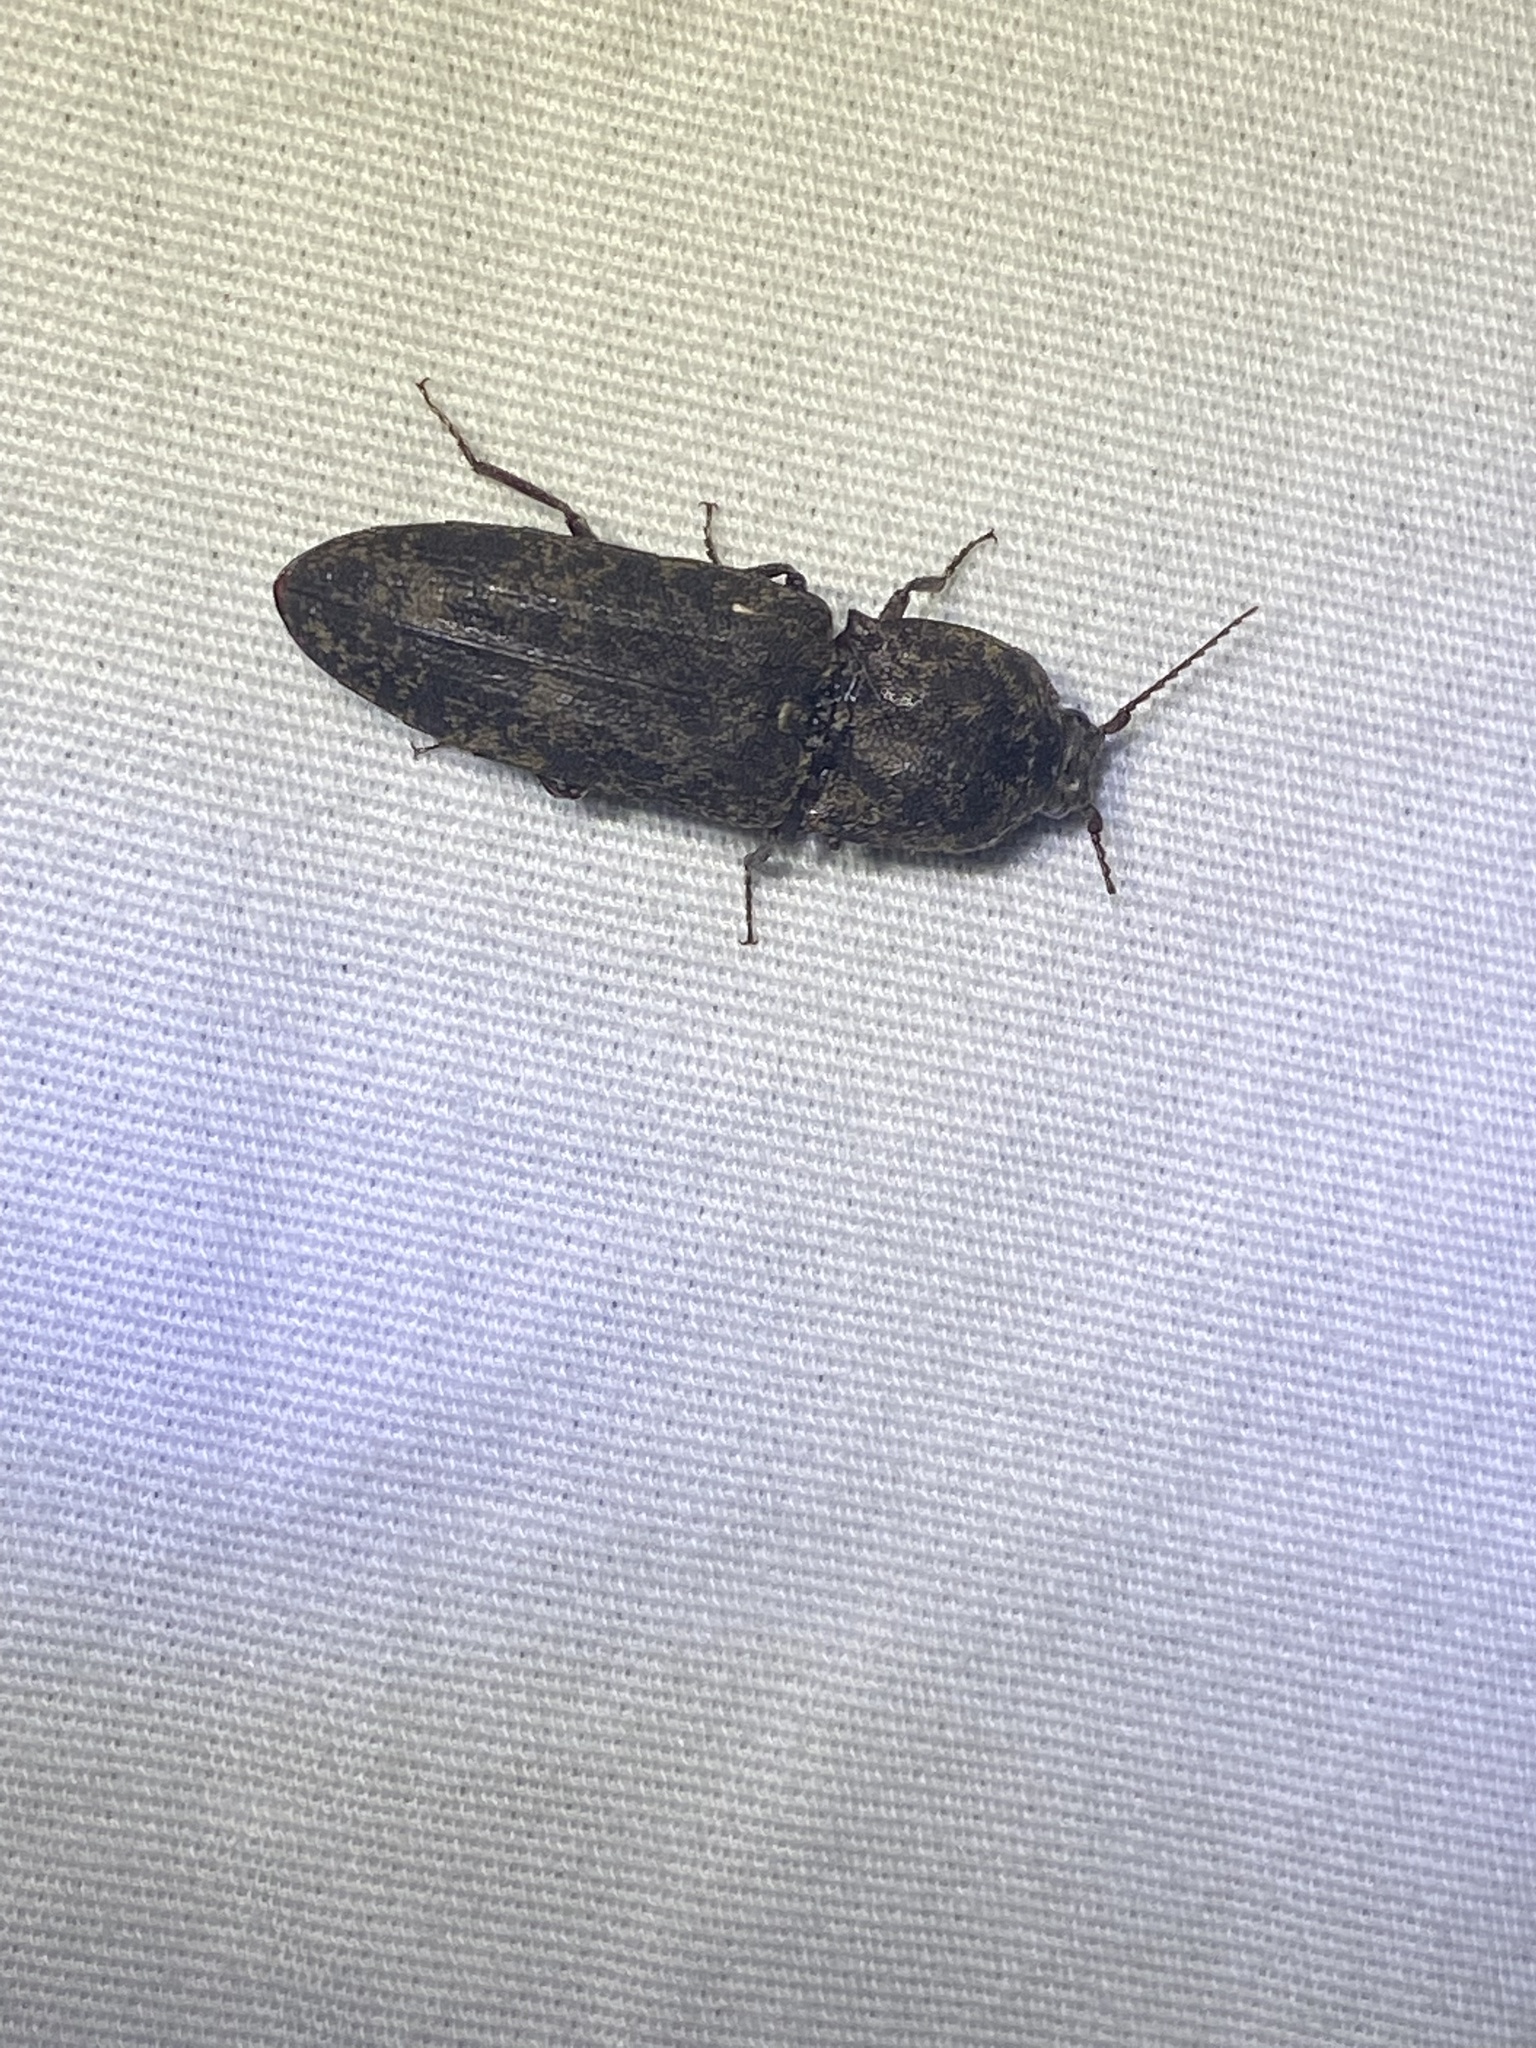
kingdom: Animalia
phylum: Arthropoda
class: Insecta
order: Coleoptera
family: Elateridae
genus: Lacon
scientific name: Lacon marmoratus
